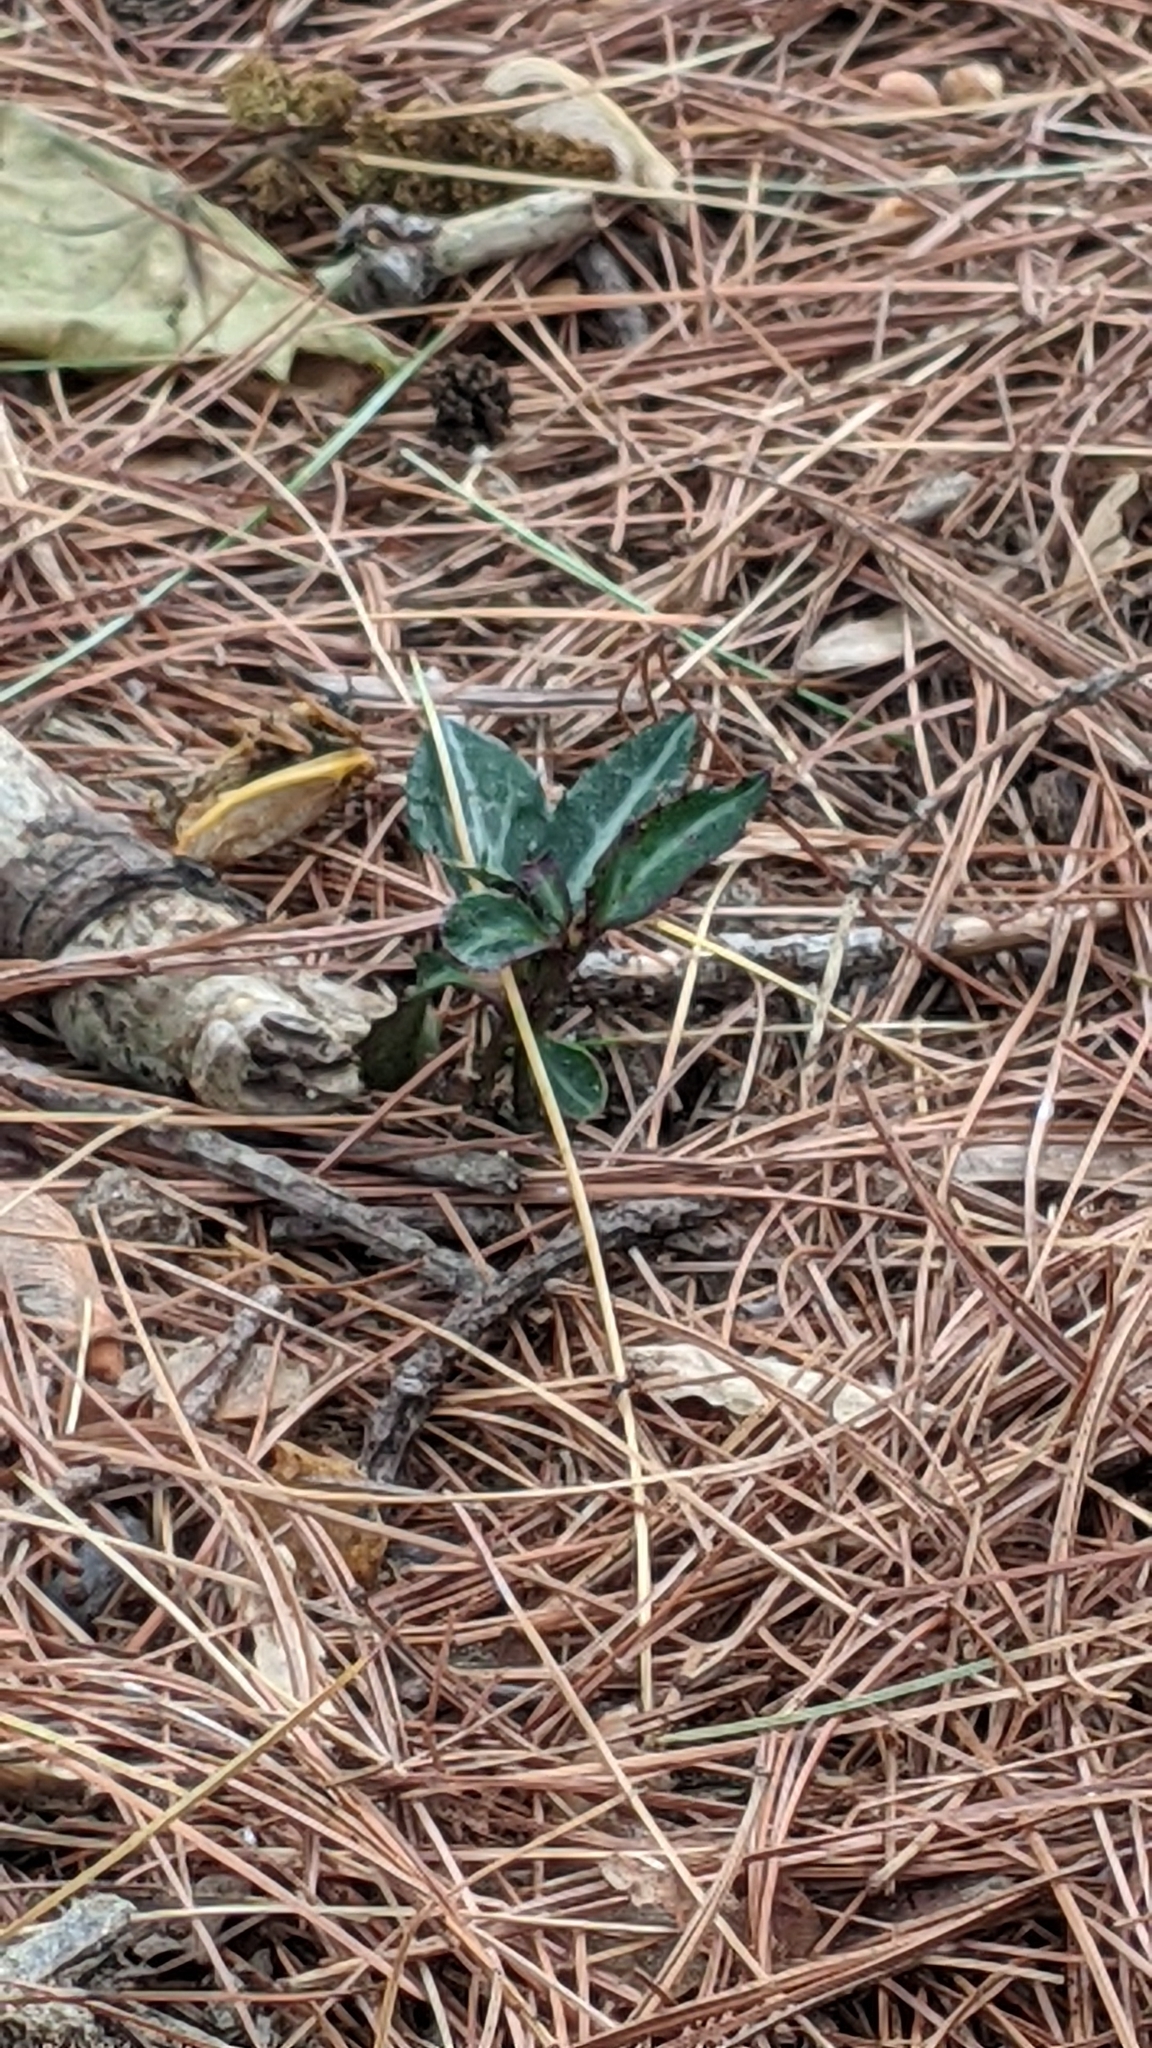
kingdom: Plantae
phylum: Tracheophyta
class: Magnoliopsida
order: Ericales
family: Ericaceae
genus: Chimaphila
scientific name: Chimaphila maculata
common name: Spotted pipsissewa
